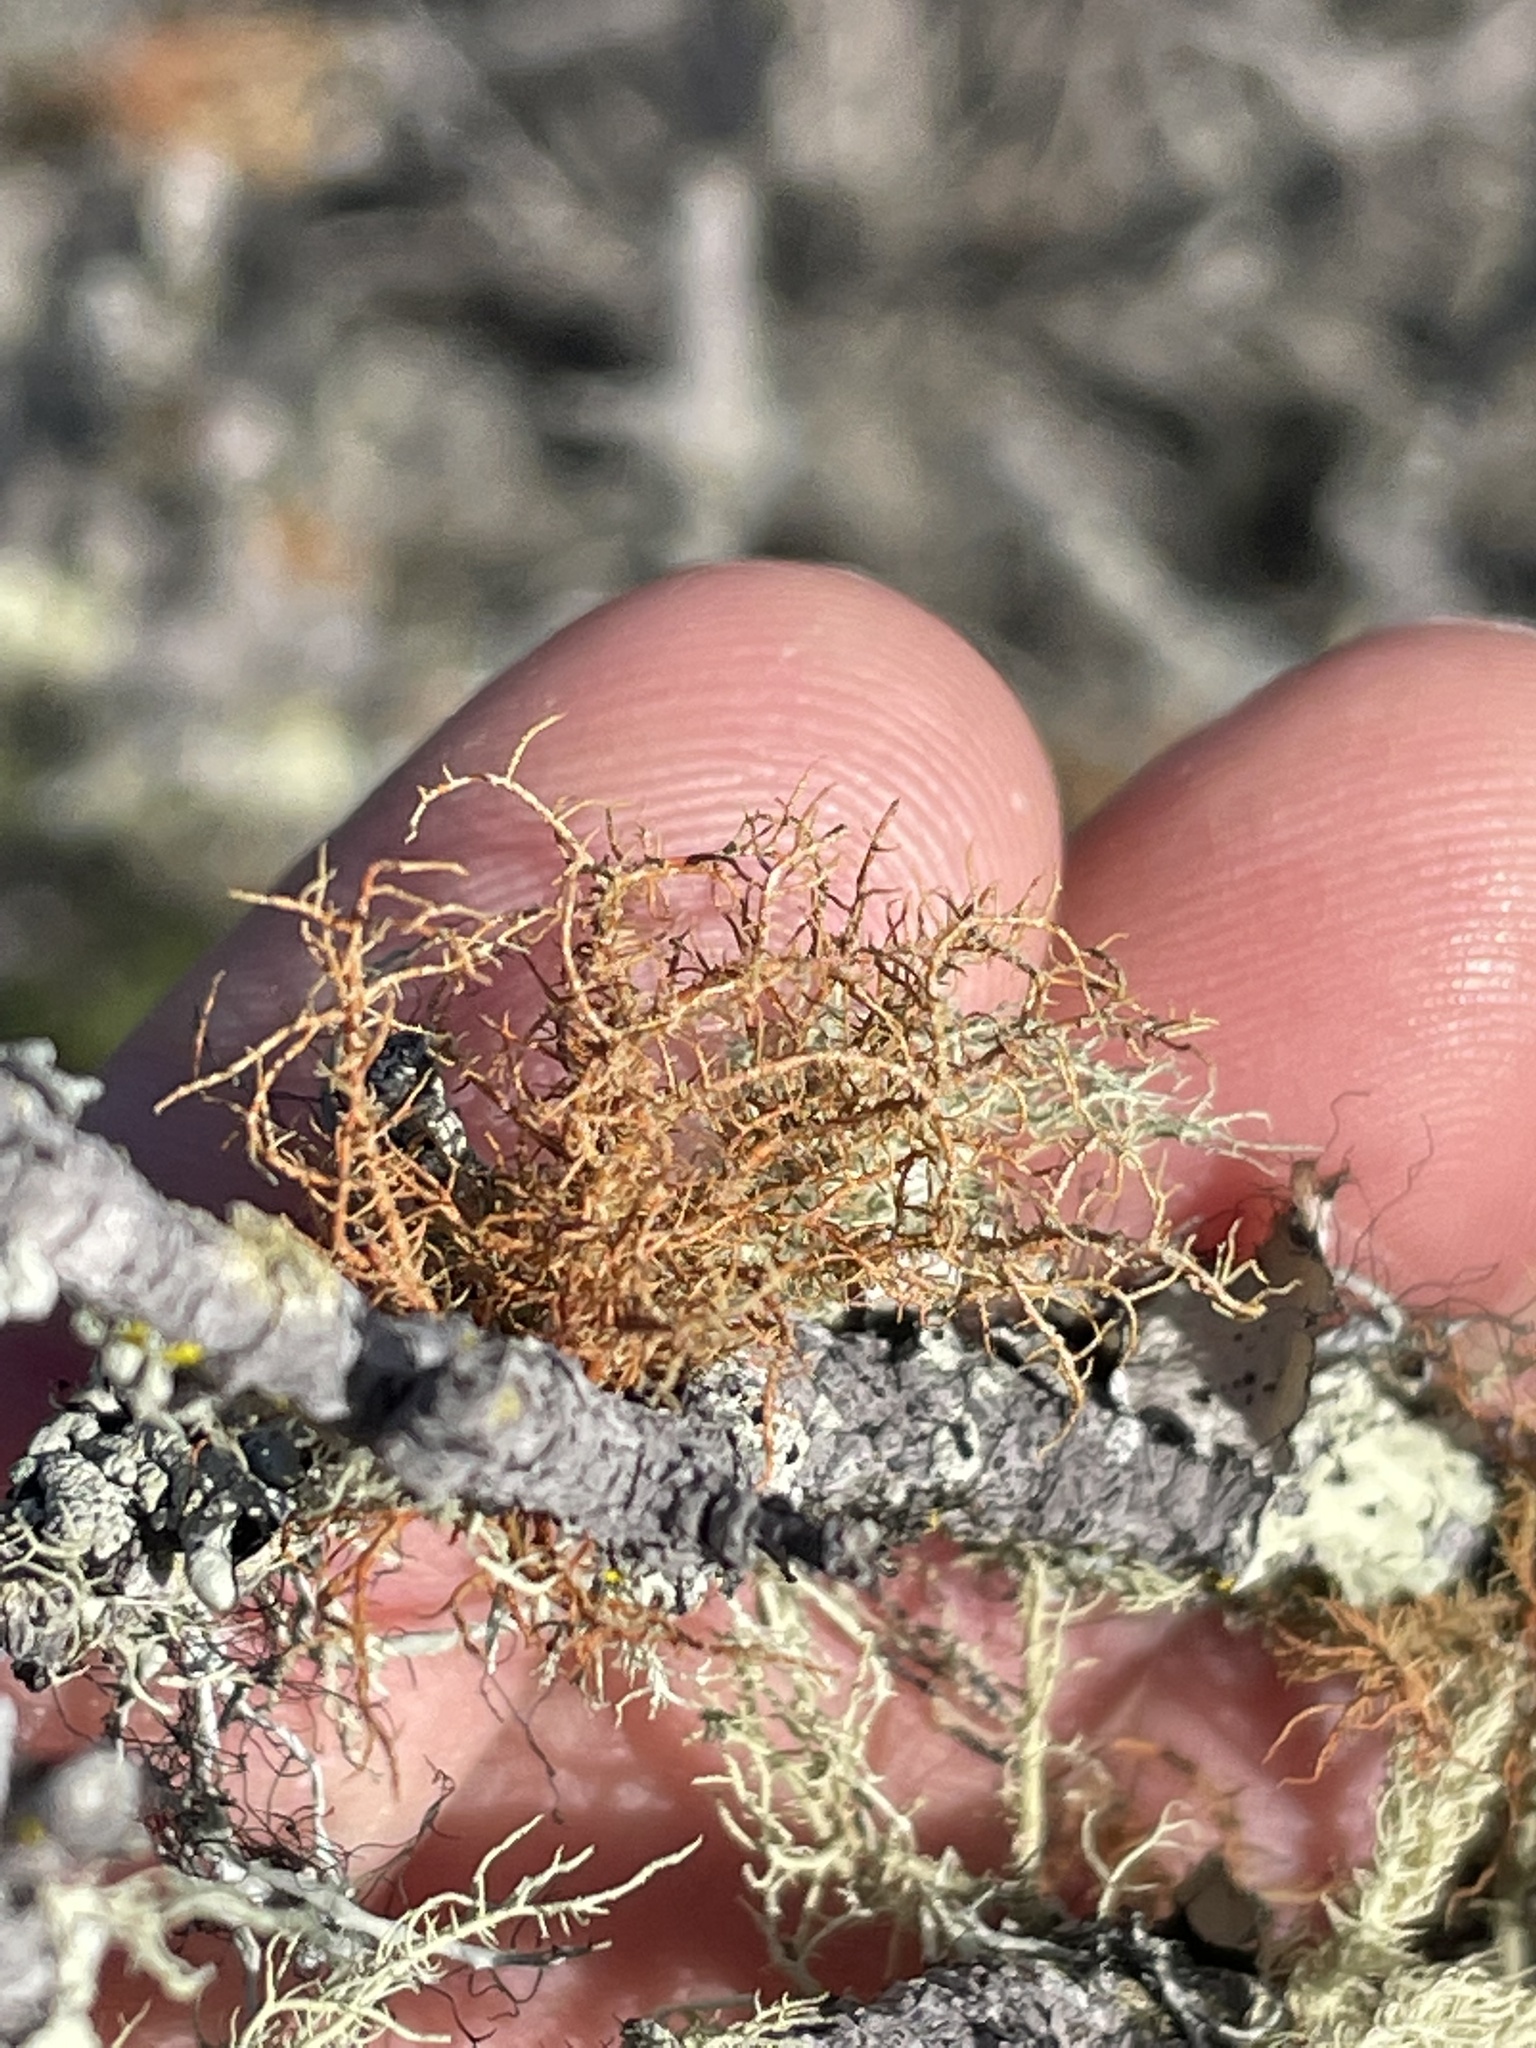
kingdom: Fungi
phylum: Ascomycota
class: Lecanoromycetes
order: Lecanorales
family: Parmeliaceae
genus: Usnea
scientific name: Usnea rubicunda
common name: Red beard lichen
